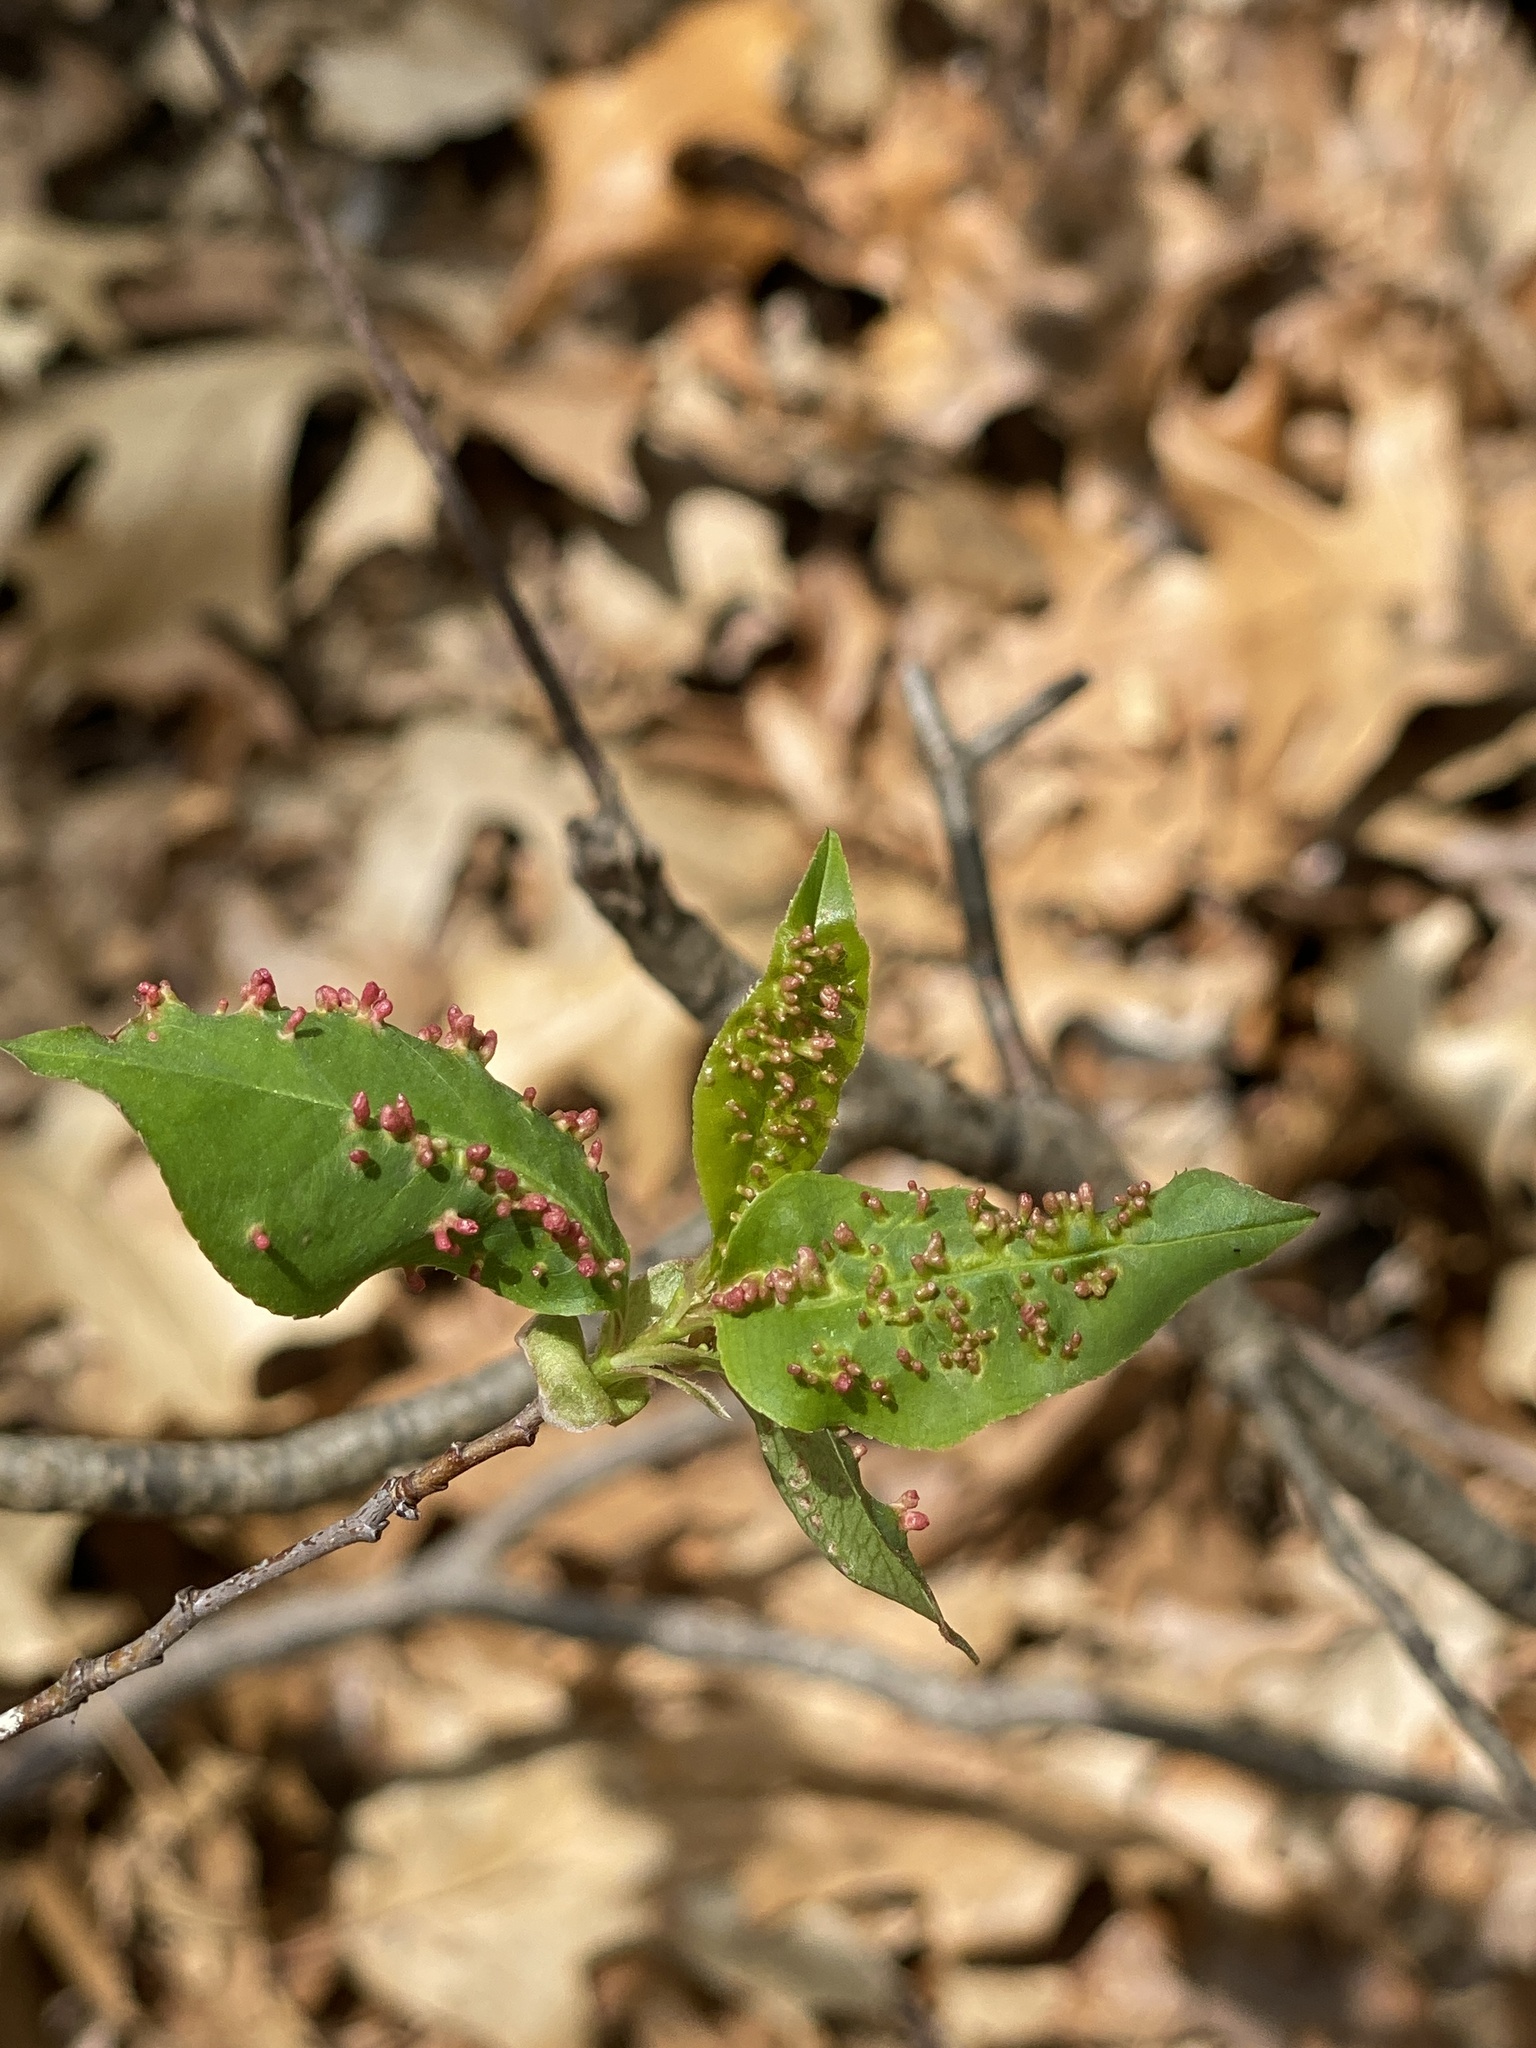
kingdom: Animalia
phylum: Arthropoda
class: Arachnida
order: Trombidiformes
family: Eriophyidae
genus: Eriophyes
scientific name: Eriophyes
